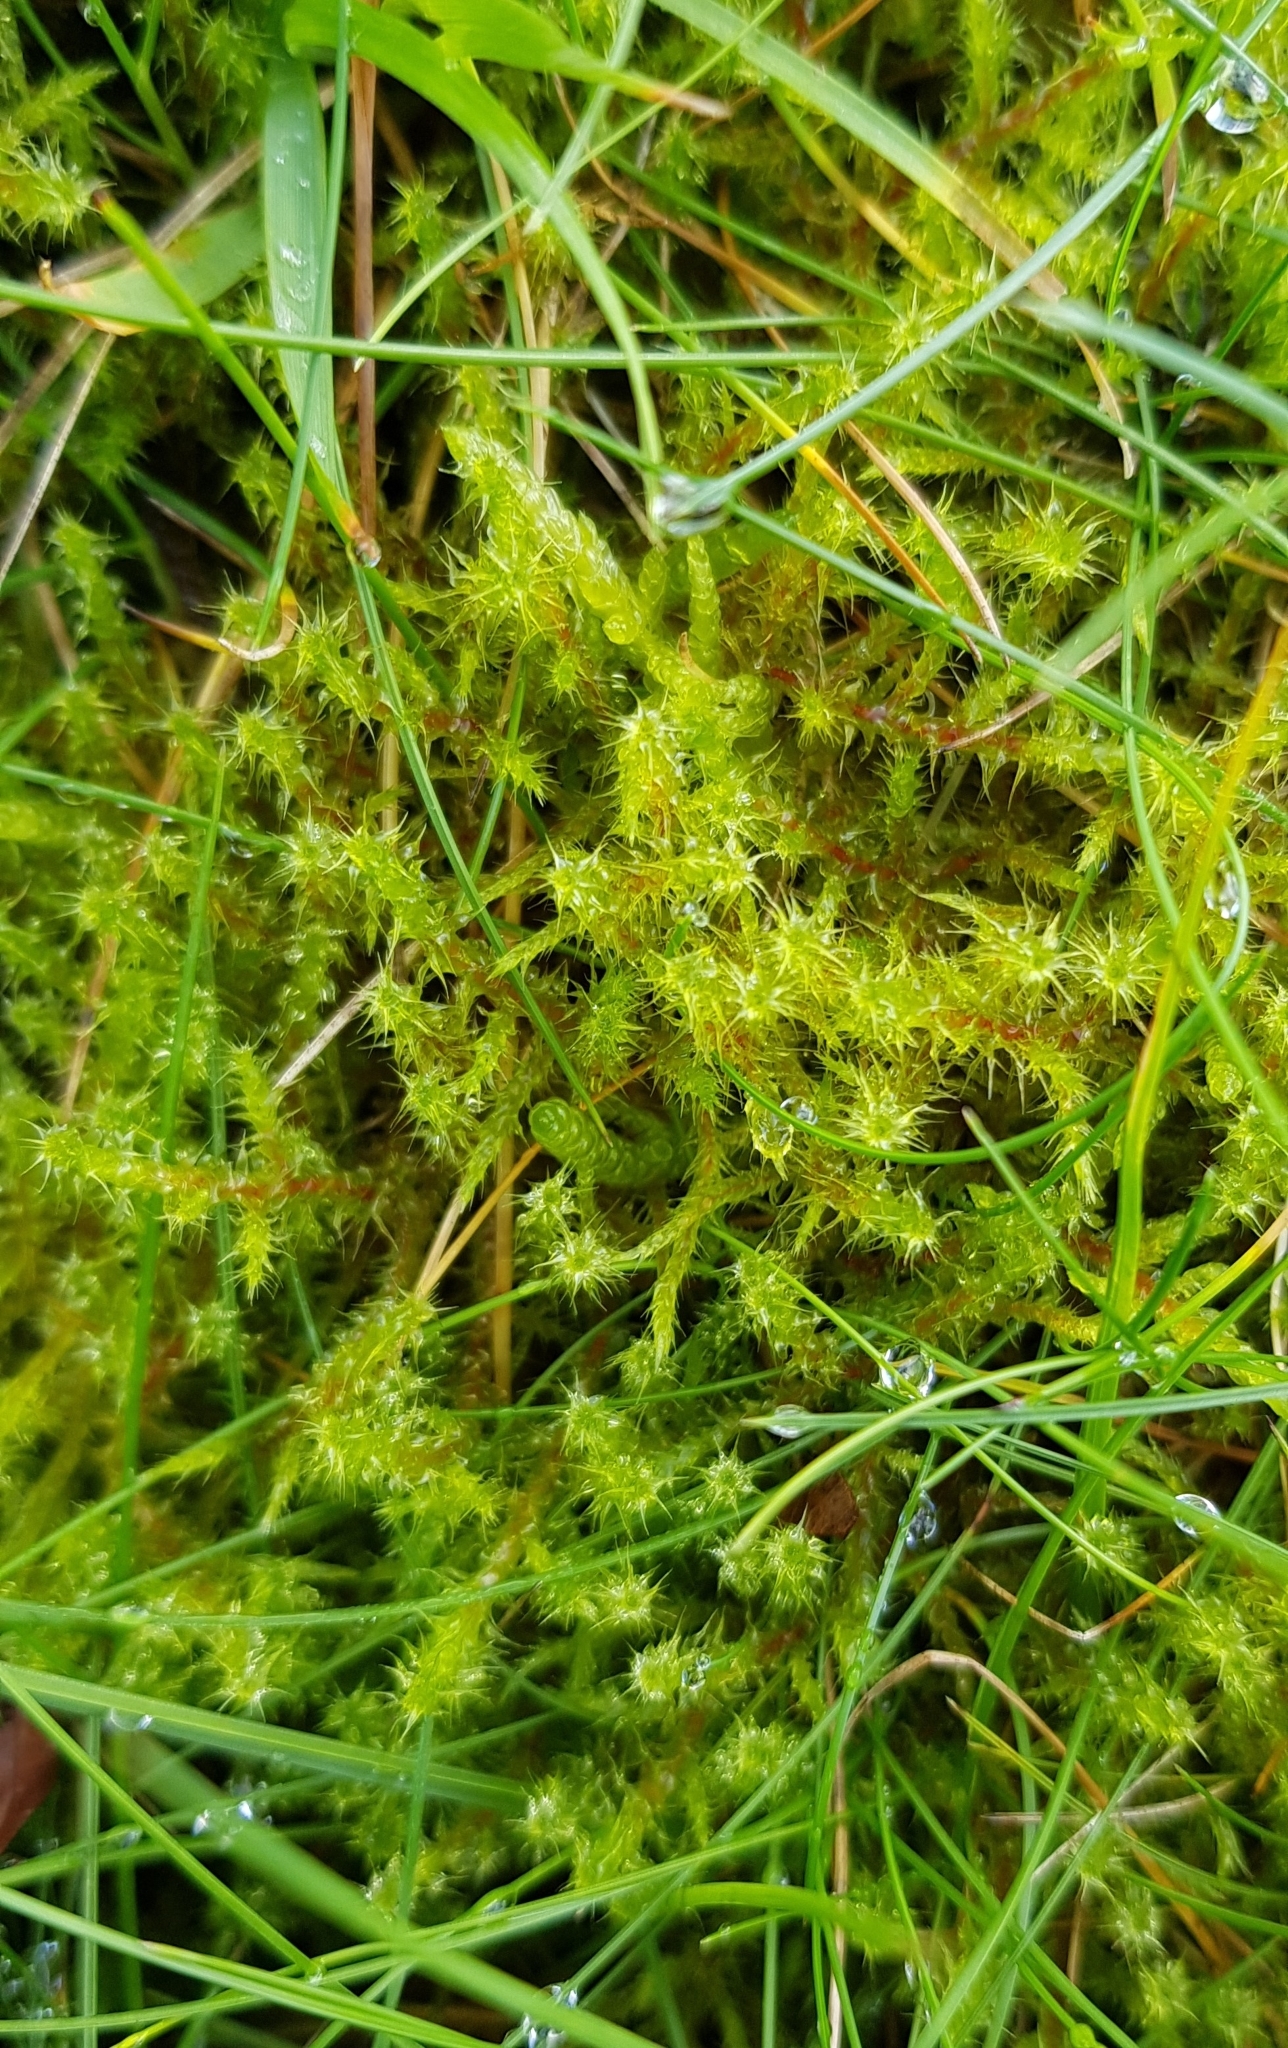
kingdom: Plantae
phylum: Bryophyta
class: Bryopsida
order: Hypnales
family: Hylocomiaceae
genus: Rhytidiadelphus
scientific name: Rhytidiadelphus squarrosus
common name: Springy turf-moss
